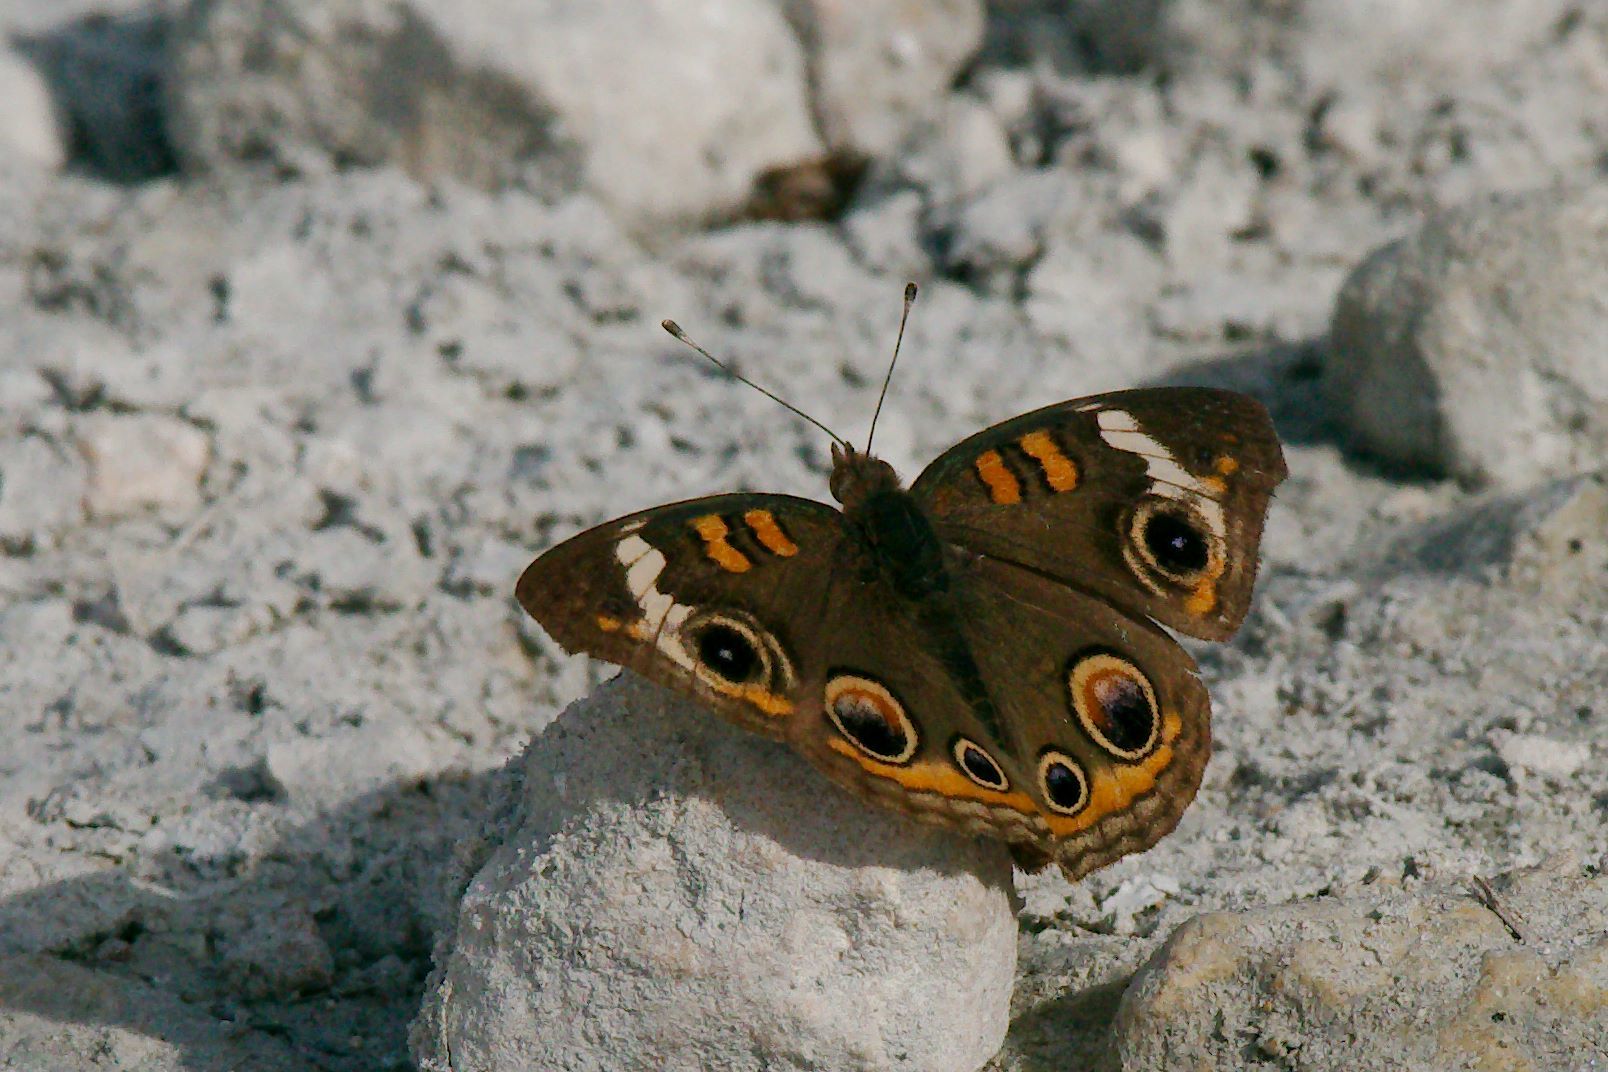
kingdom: Animalia
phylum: Arthropoda
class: Insecta
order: Lepidoptera
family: Nymphalidae
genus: Junonia
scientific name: Junonia coenia
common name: Common buckeye
